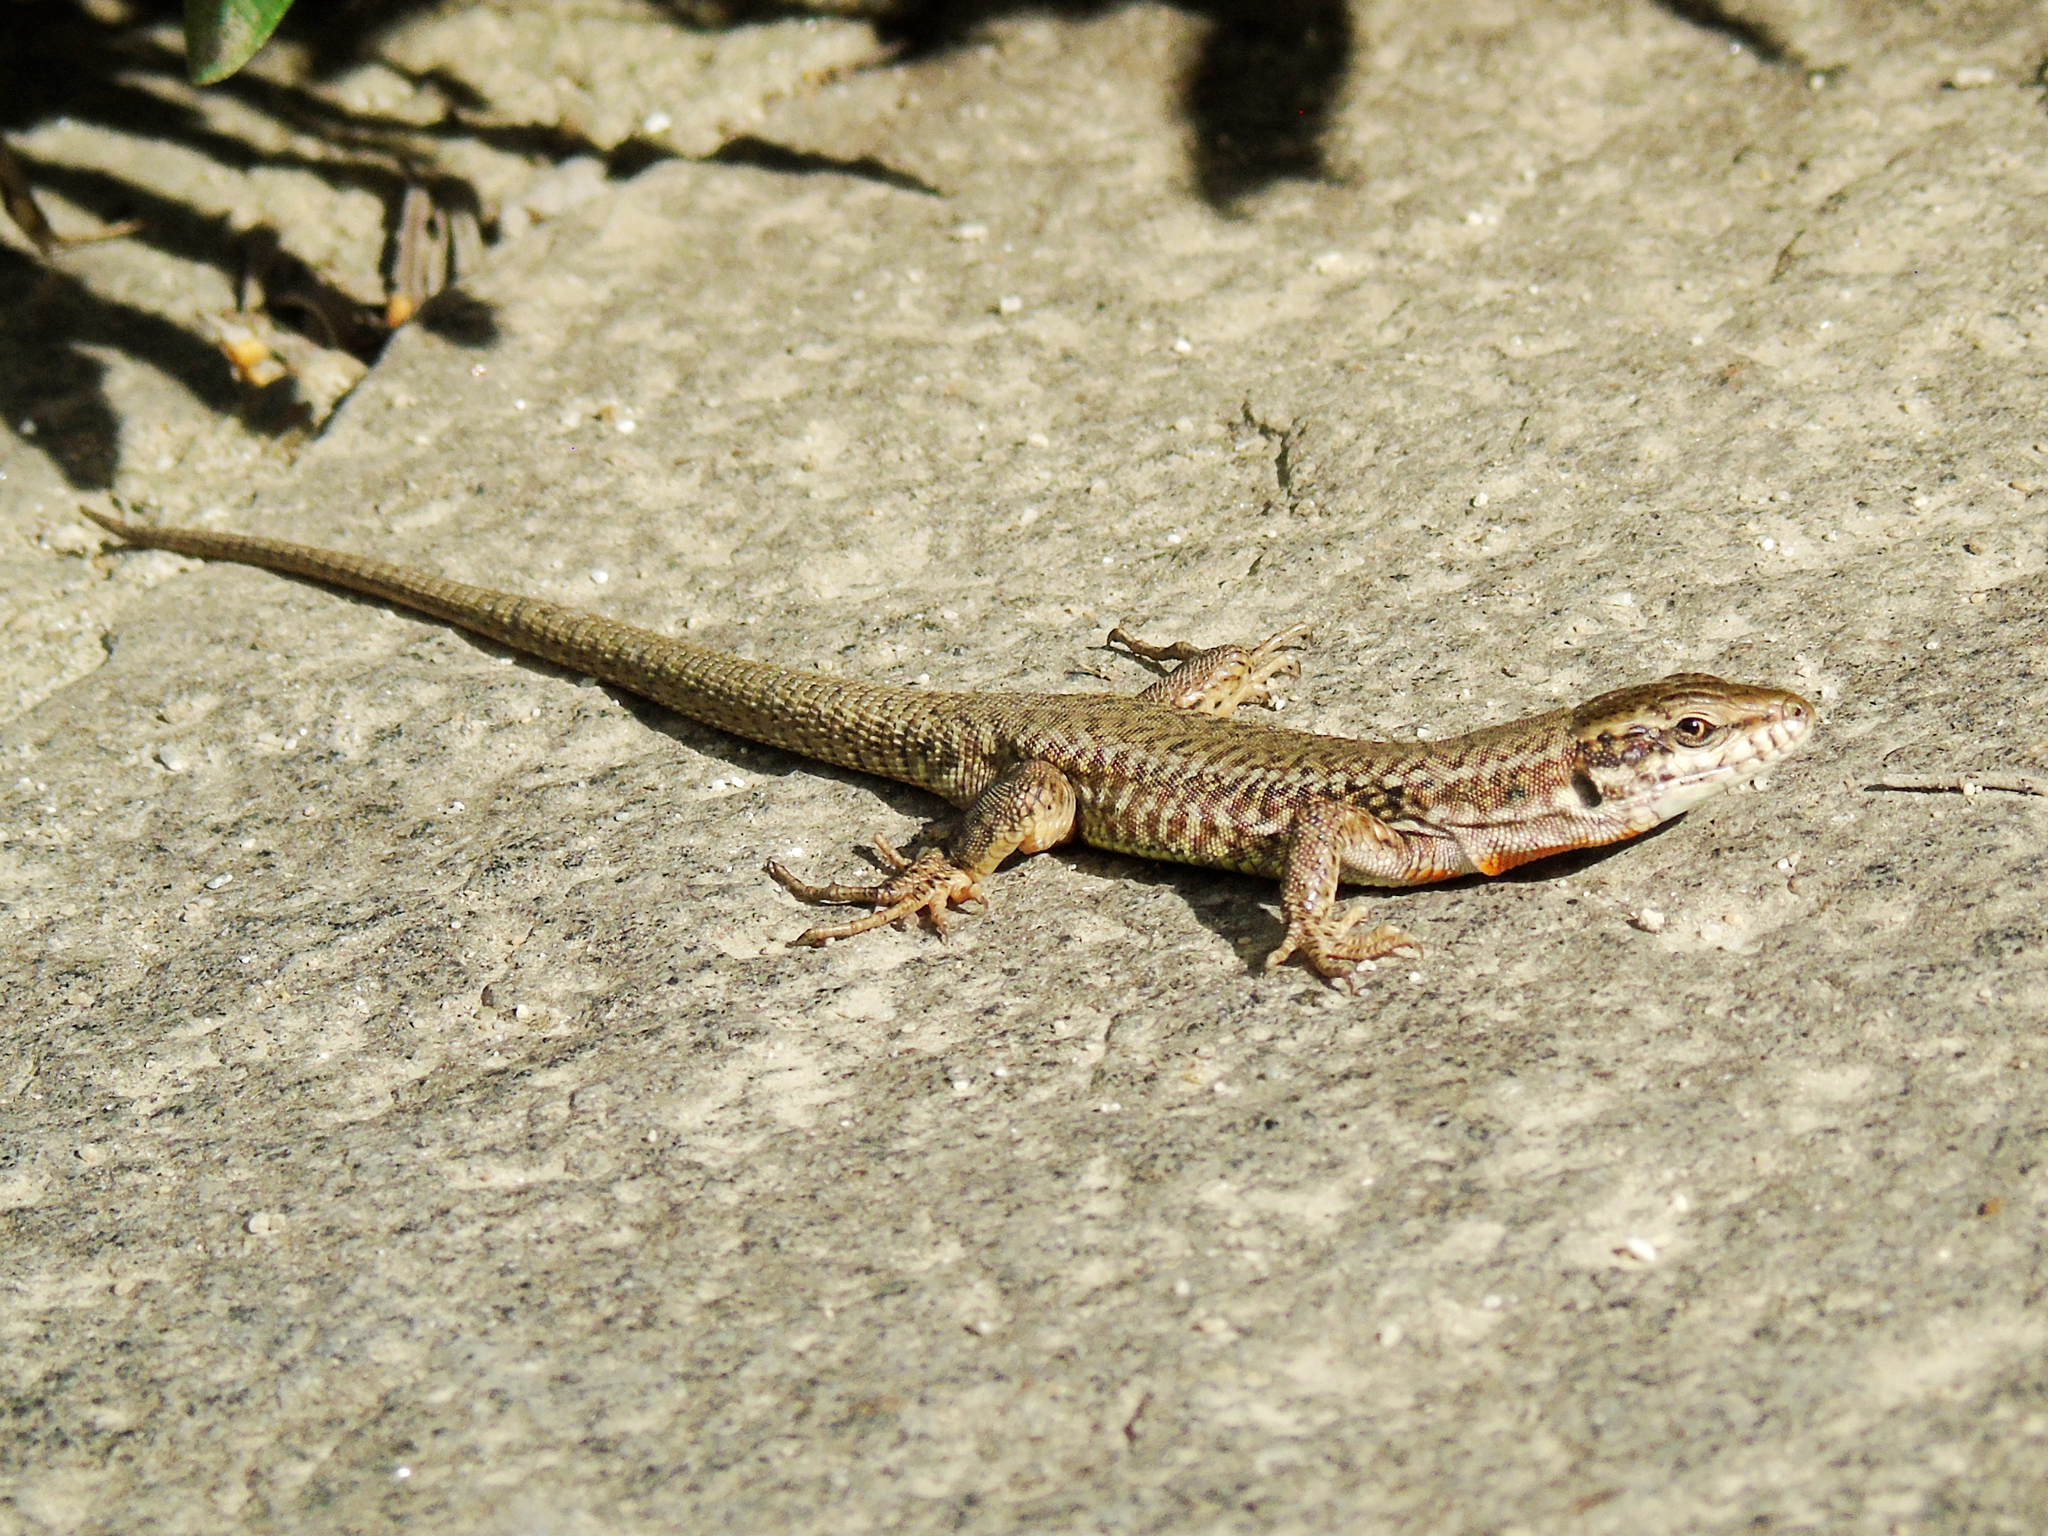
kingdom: Animalia
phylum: Chordata
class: Squamata
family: Lacertidae
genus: Podarcis
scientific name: Podarcis muralis
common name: Common wall lizard
